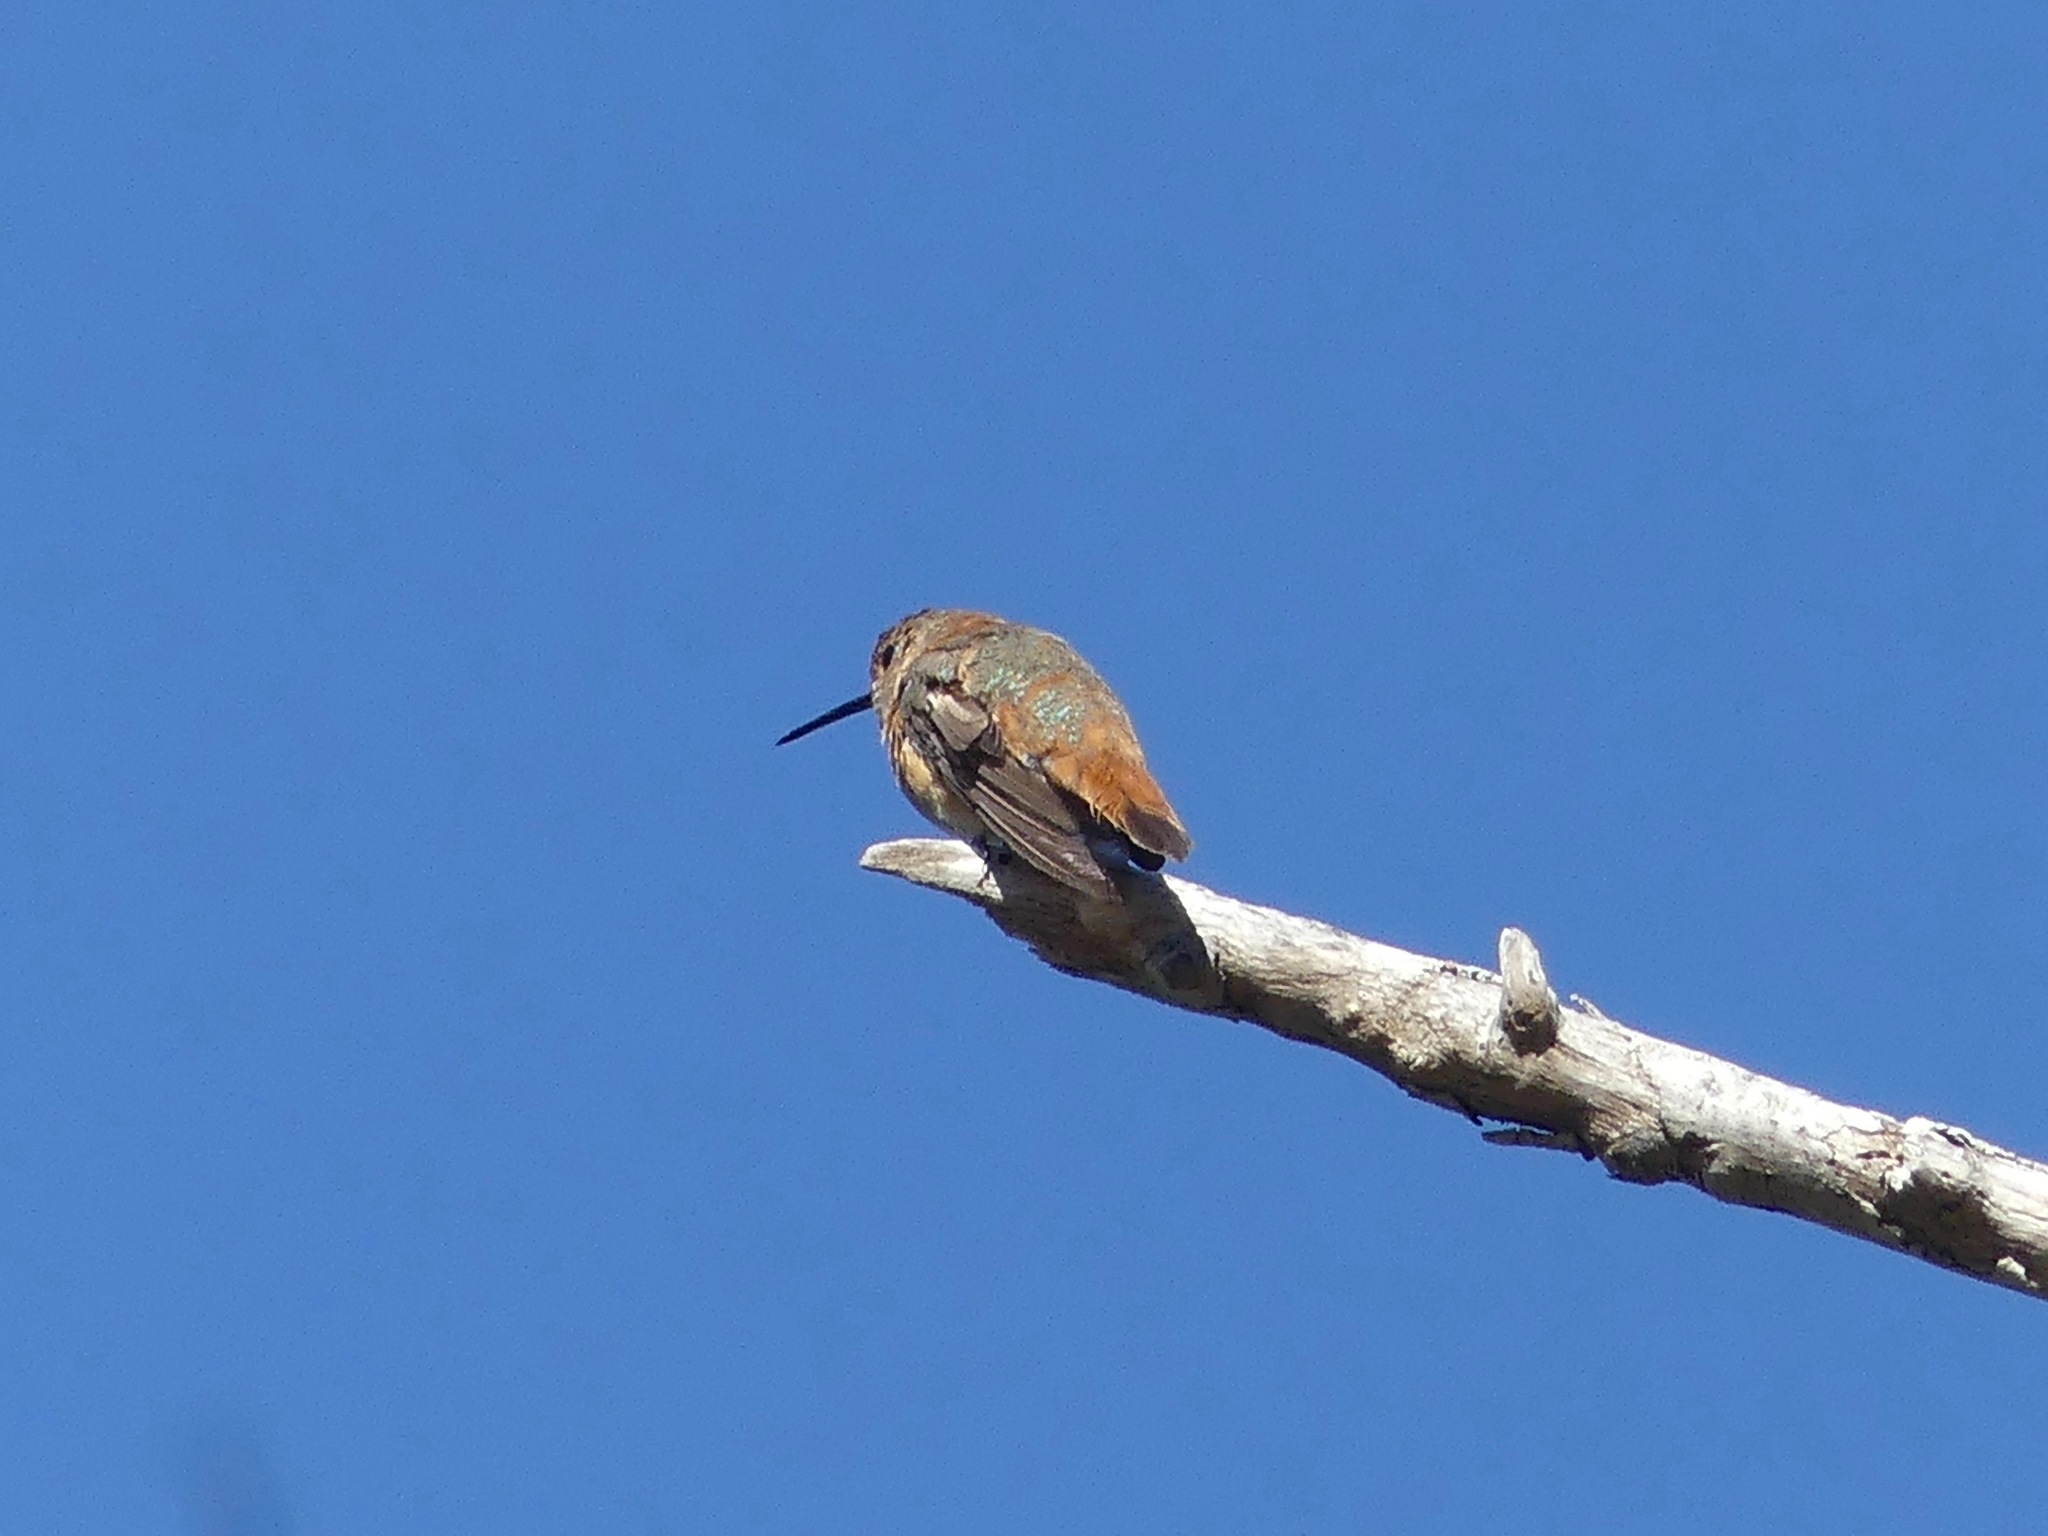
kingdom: Animalia
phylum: Chordata
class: Aves
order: Apodiformes
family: Trochilidae
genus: Selasphorus
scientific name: Selasphorus rufus
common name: Rufous hummingbird
